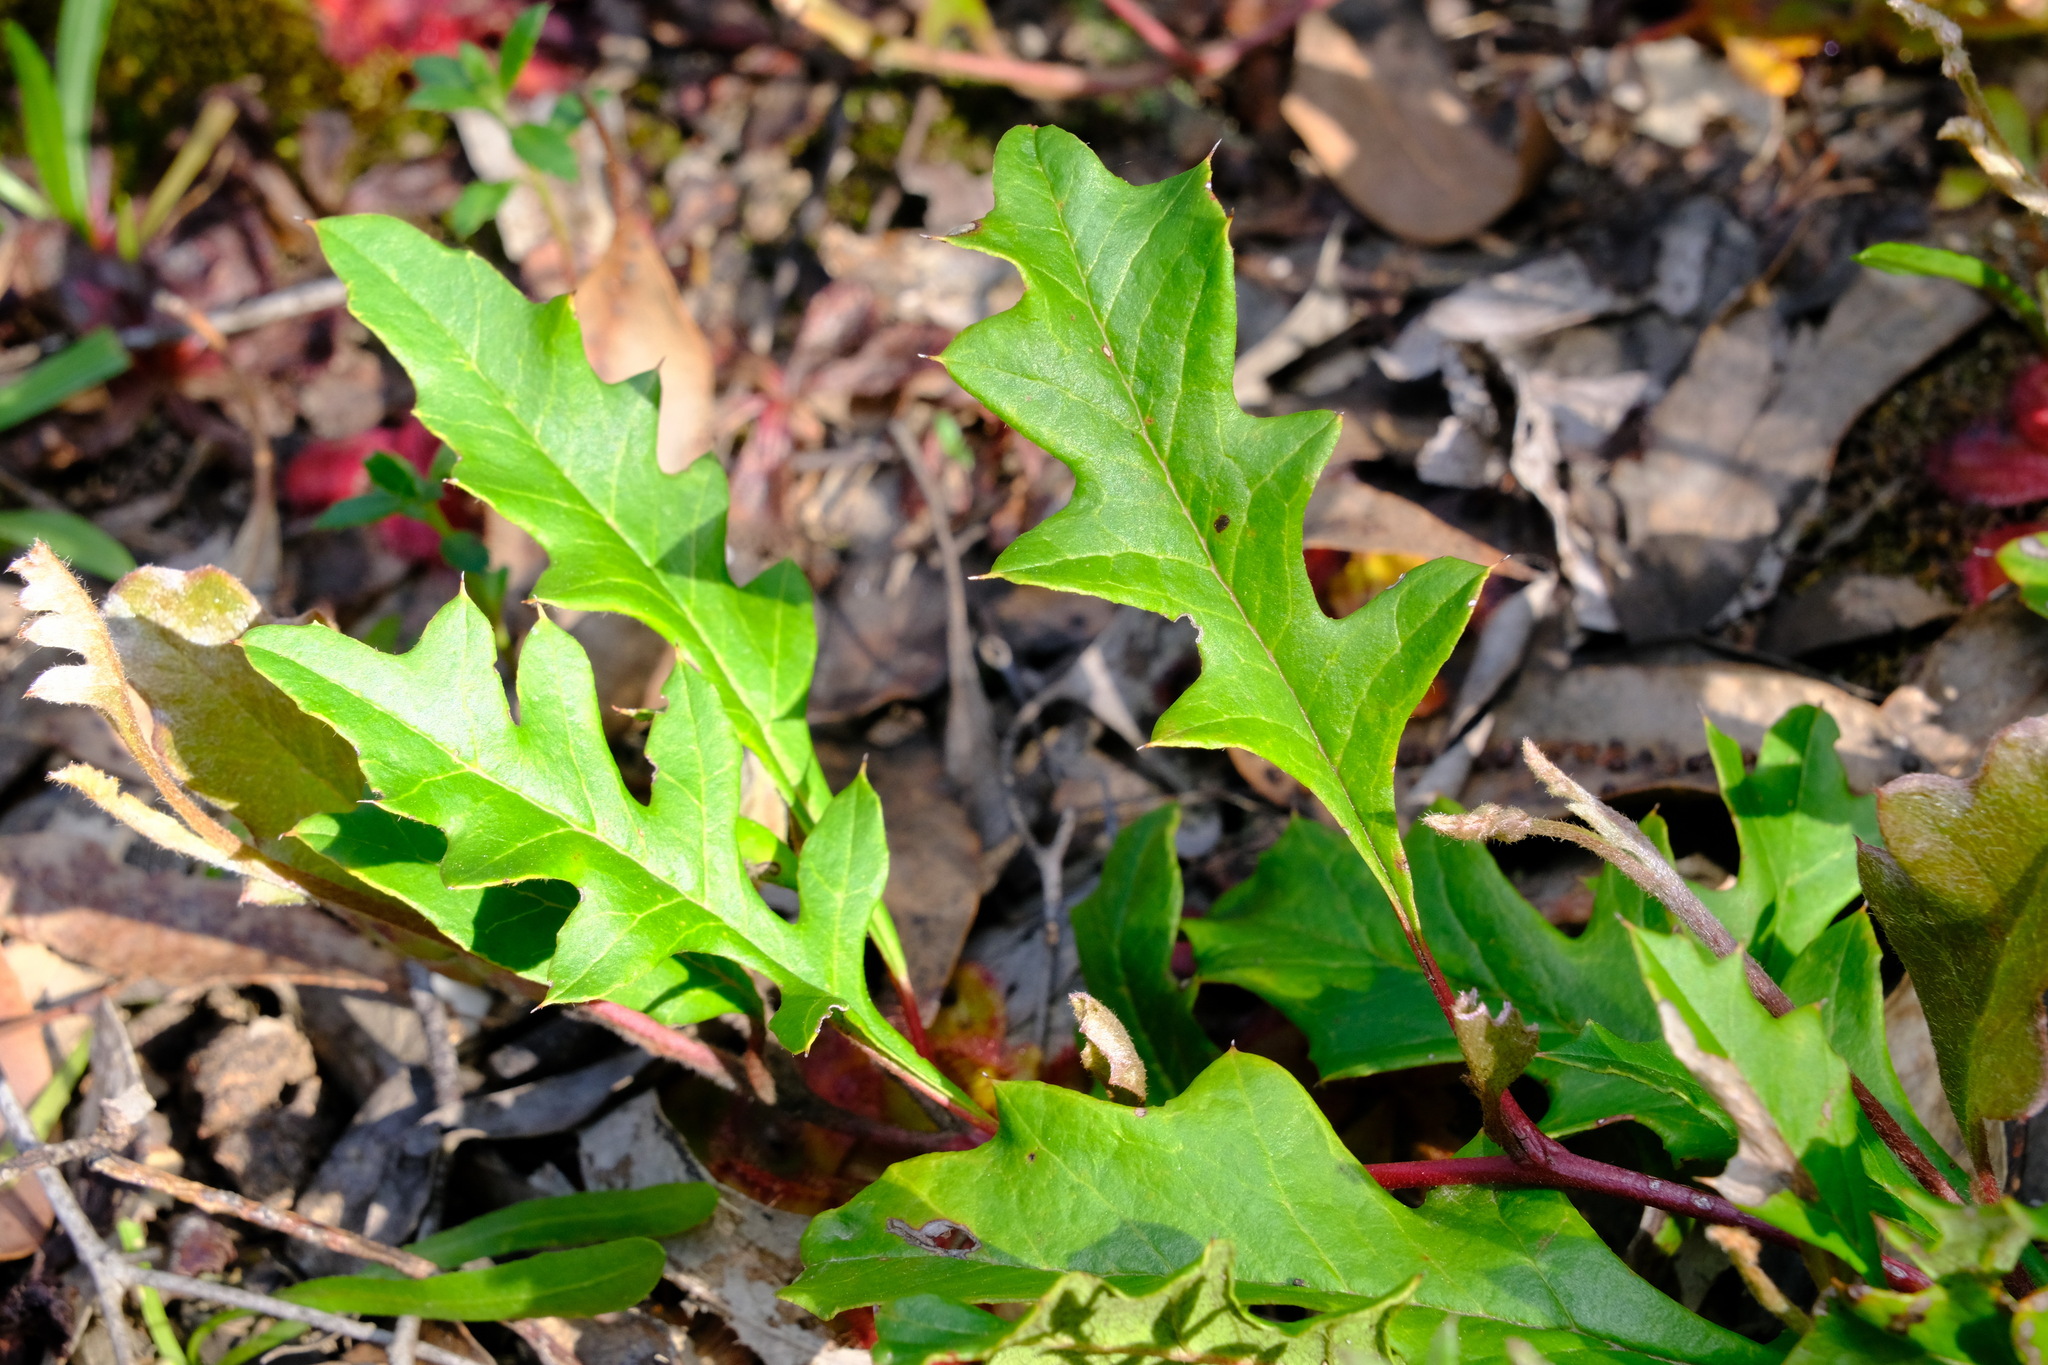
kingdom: Plantae
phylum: Tracheophyta
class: Magnoliopsida
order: Proteales
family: Proteaceae
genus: Grevillea
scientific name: Grevillea obtecta
